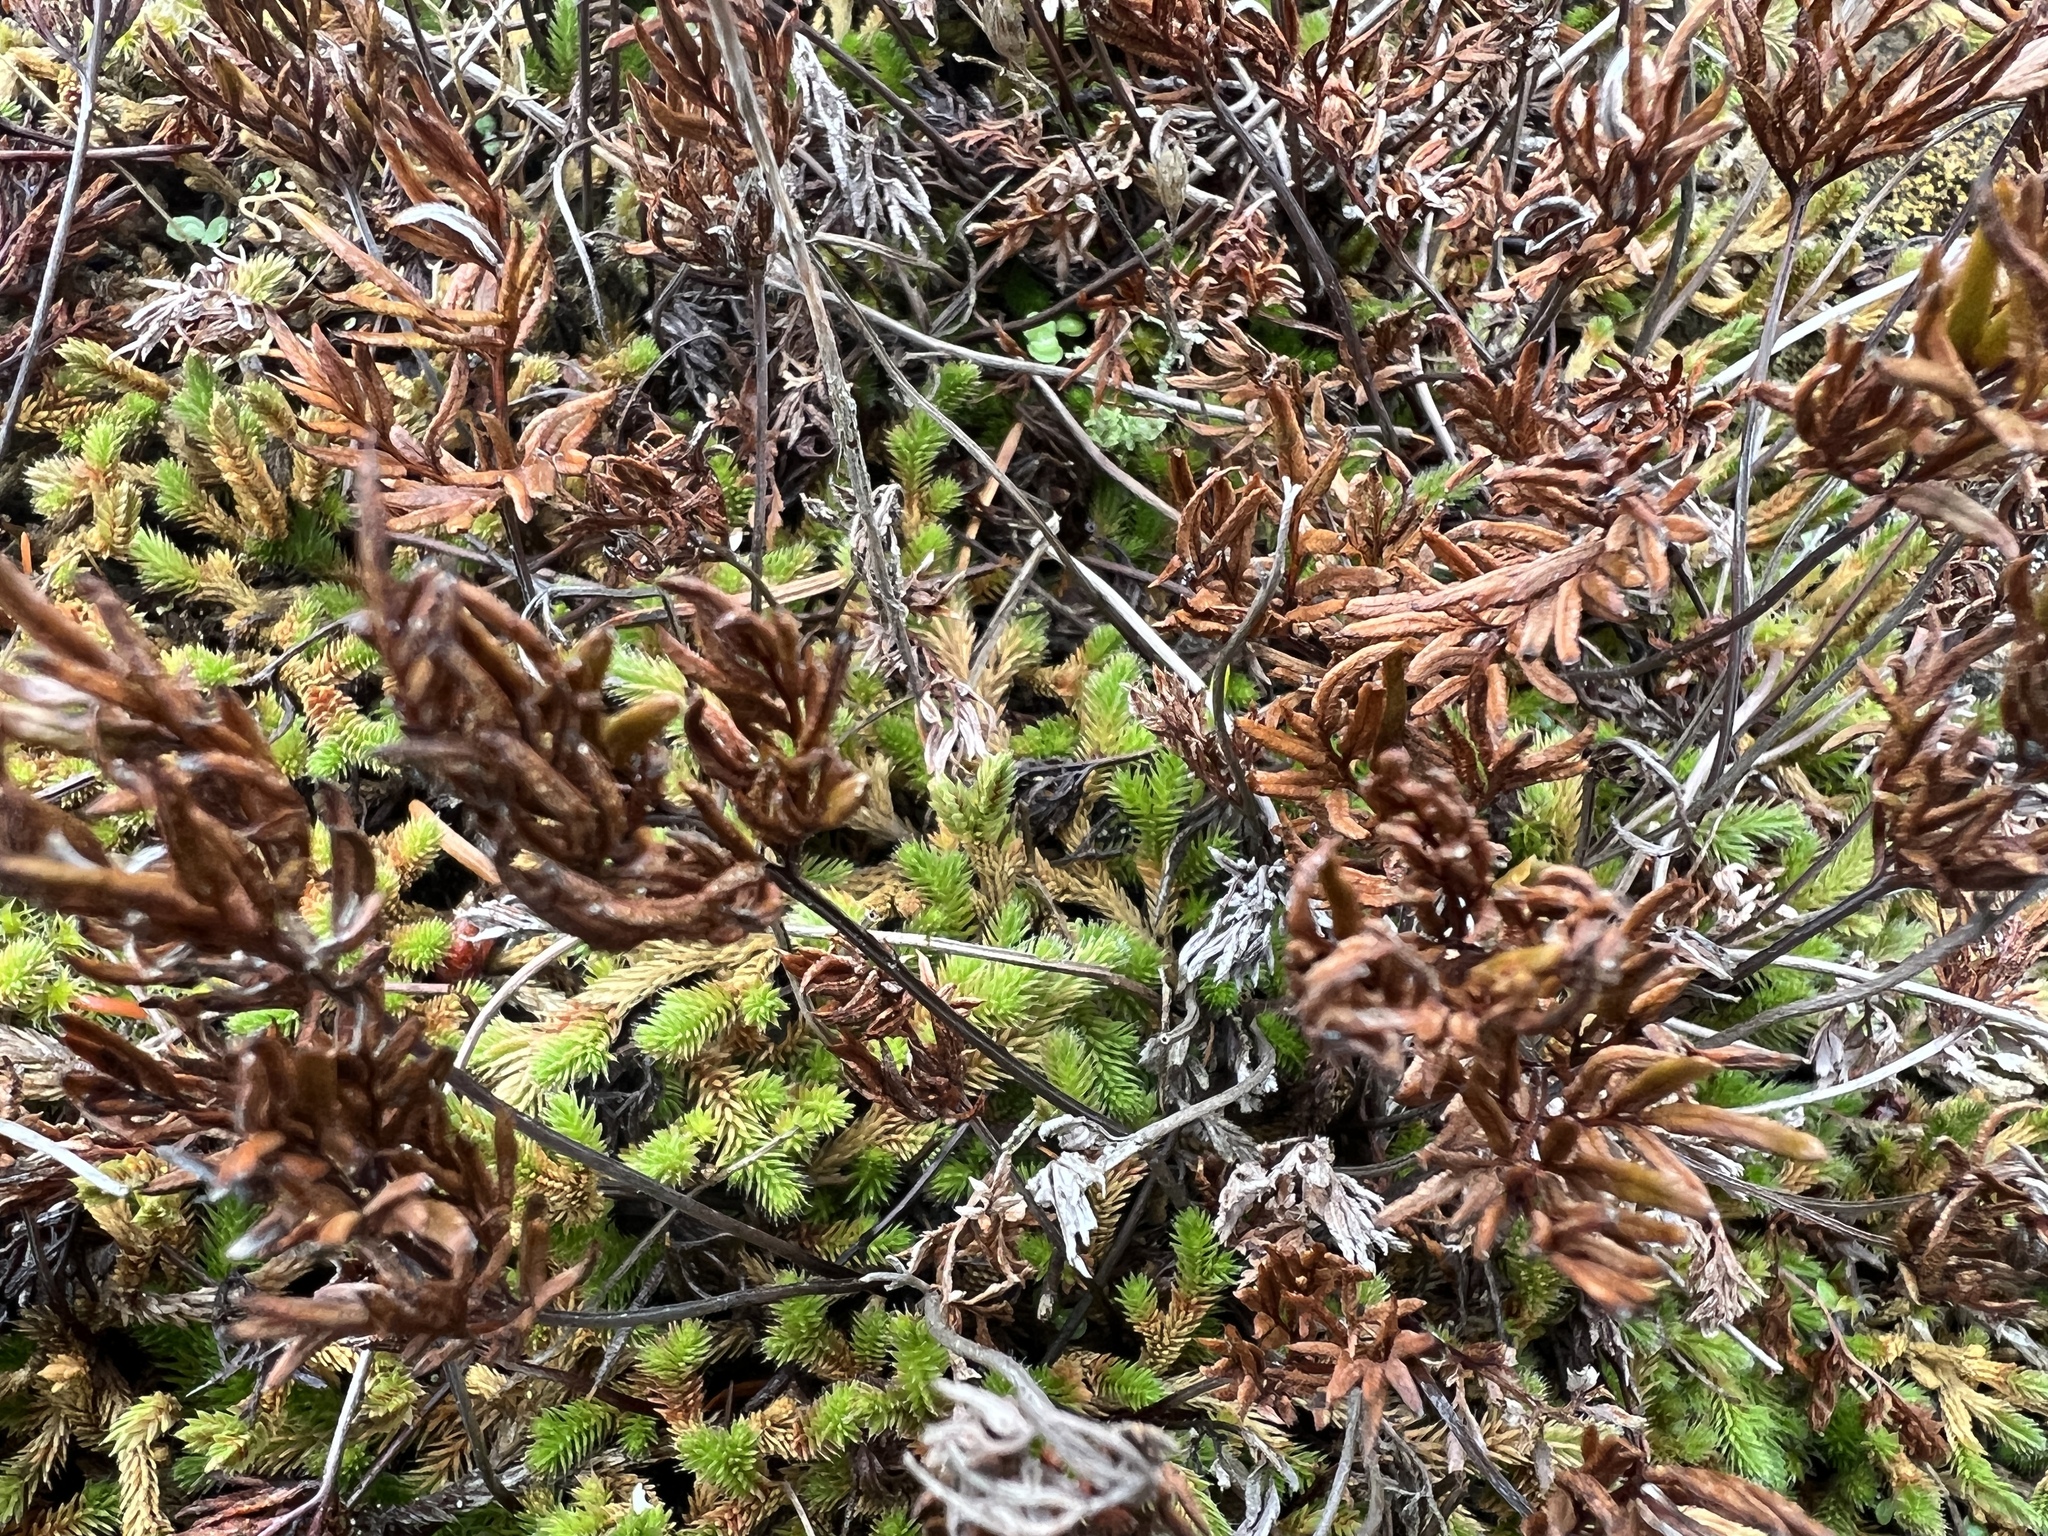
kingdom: Plantae
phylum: Tracheophyta
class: Polypodiopsida
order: Polypodiales
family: Pteridaceae
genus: Aspidotis
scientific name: Aspidotis densa
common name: Indian's dream
